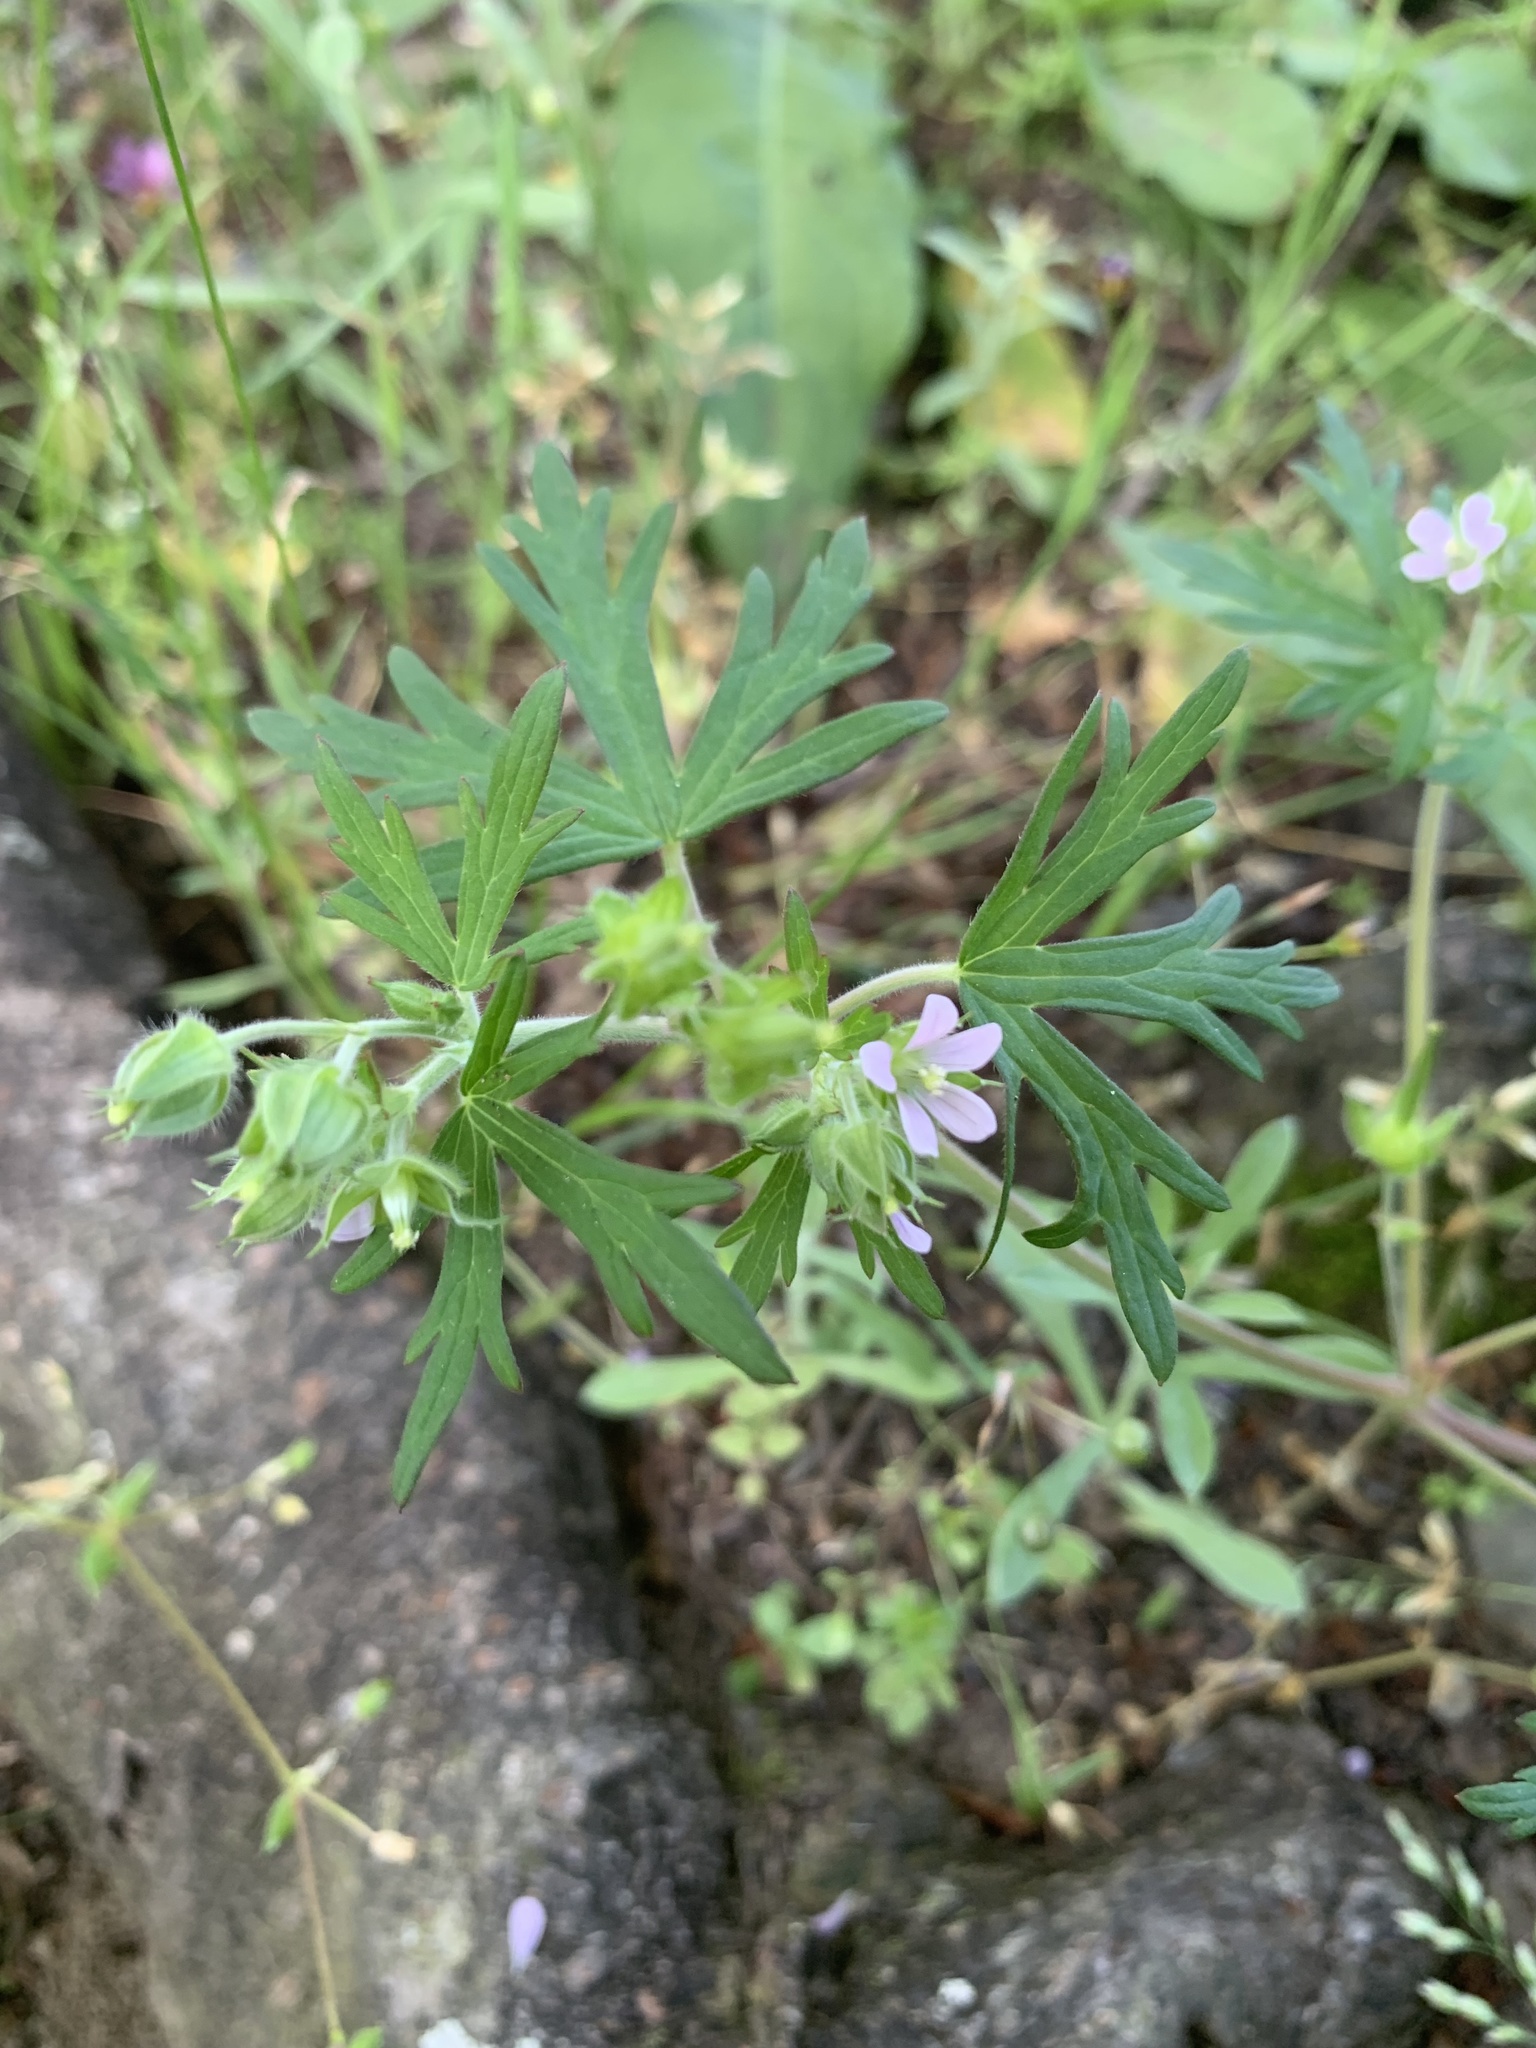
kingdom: Plantae
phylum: Tracheophyta
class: Magnoliopsida
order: Geraniales
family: Geraniaceae
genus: Geranium
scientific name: Geranium carolinianum
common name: Carolina crane's-bill
